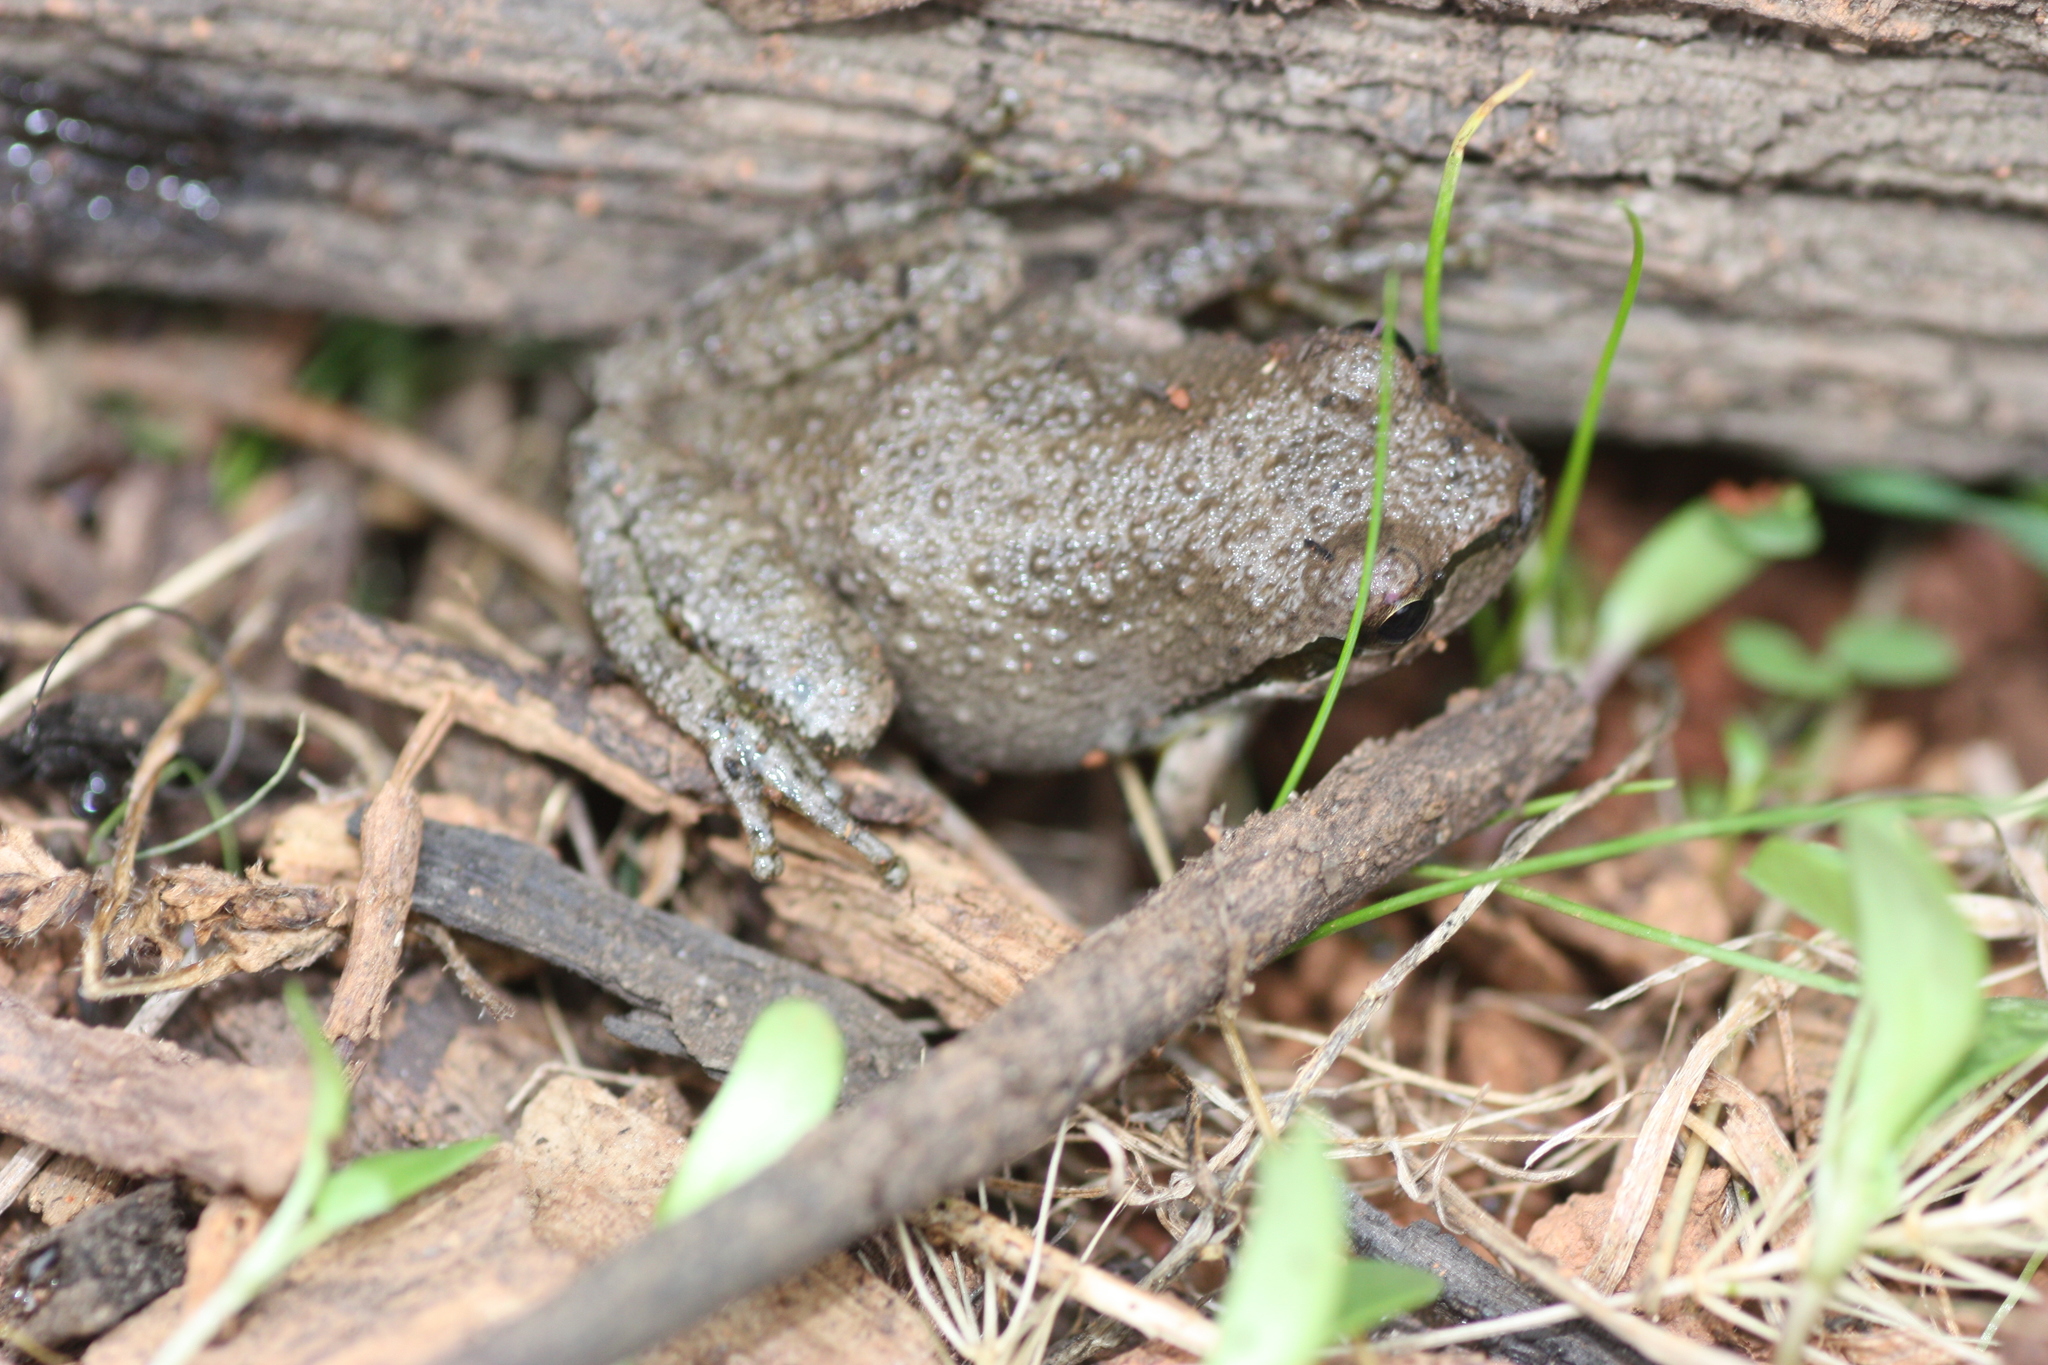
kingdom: Animalia
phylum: Chordata
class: Amphibia
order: Anura
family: Hylidae
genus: Pseudacris
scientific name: Pseudacris regilla
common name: Pacific chorus frog
